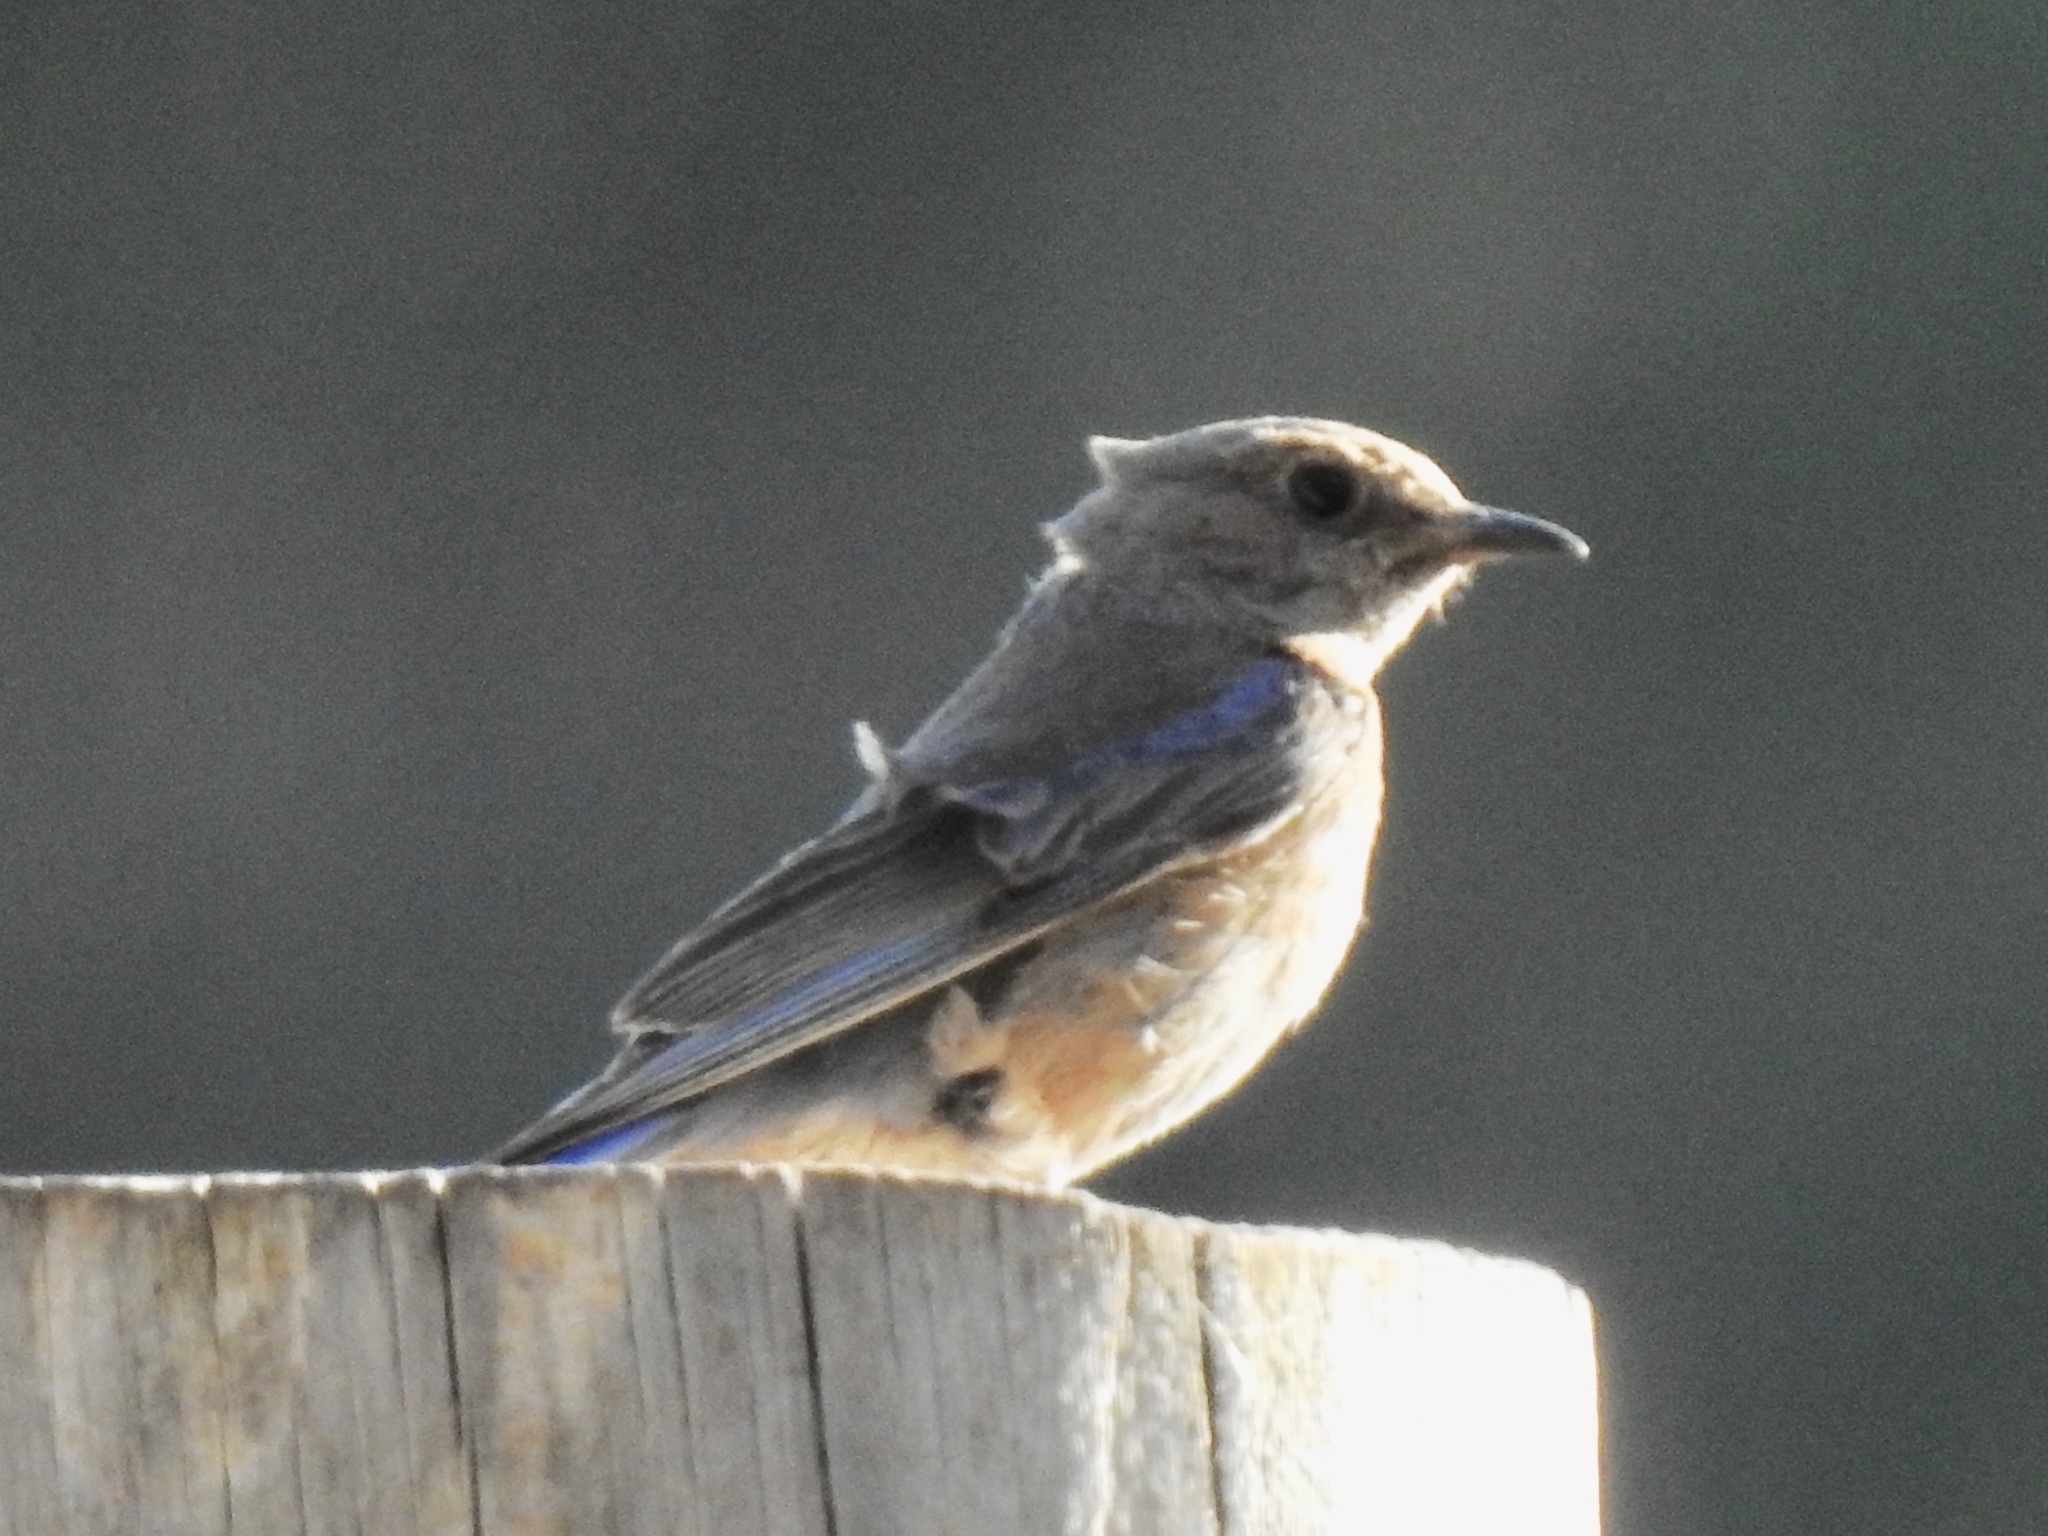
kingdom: Animalia
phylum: Chordata
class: Aves
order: Passeriformes
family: Turdidae
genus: Sialia
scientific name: Sialia mexicana
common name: Western bluebird
